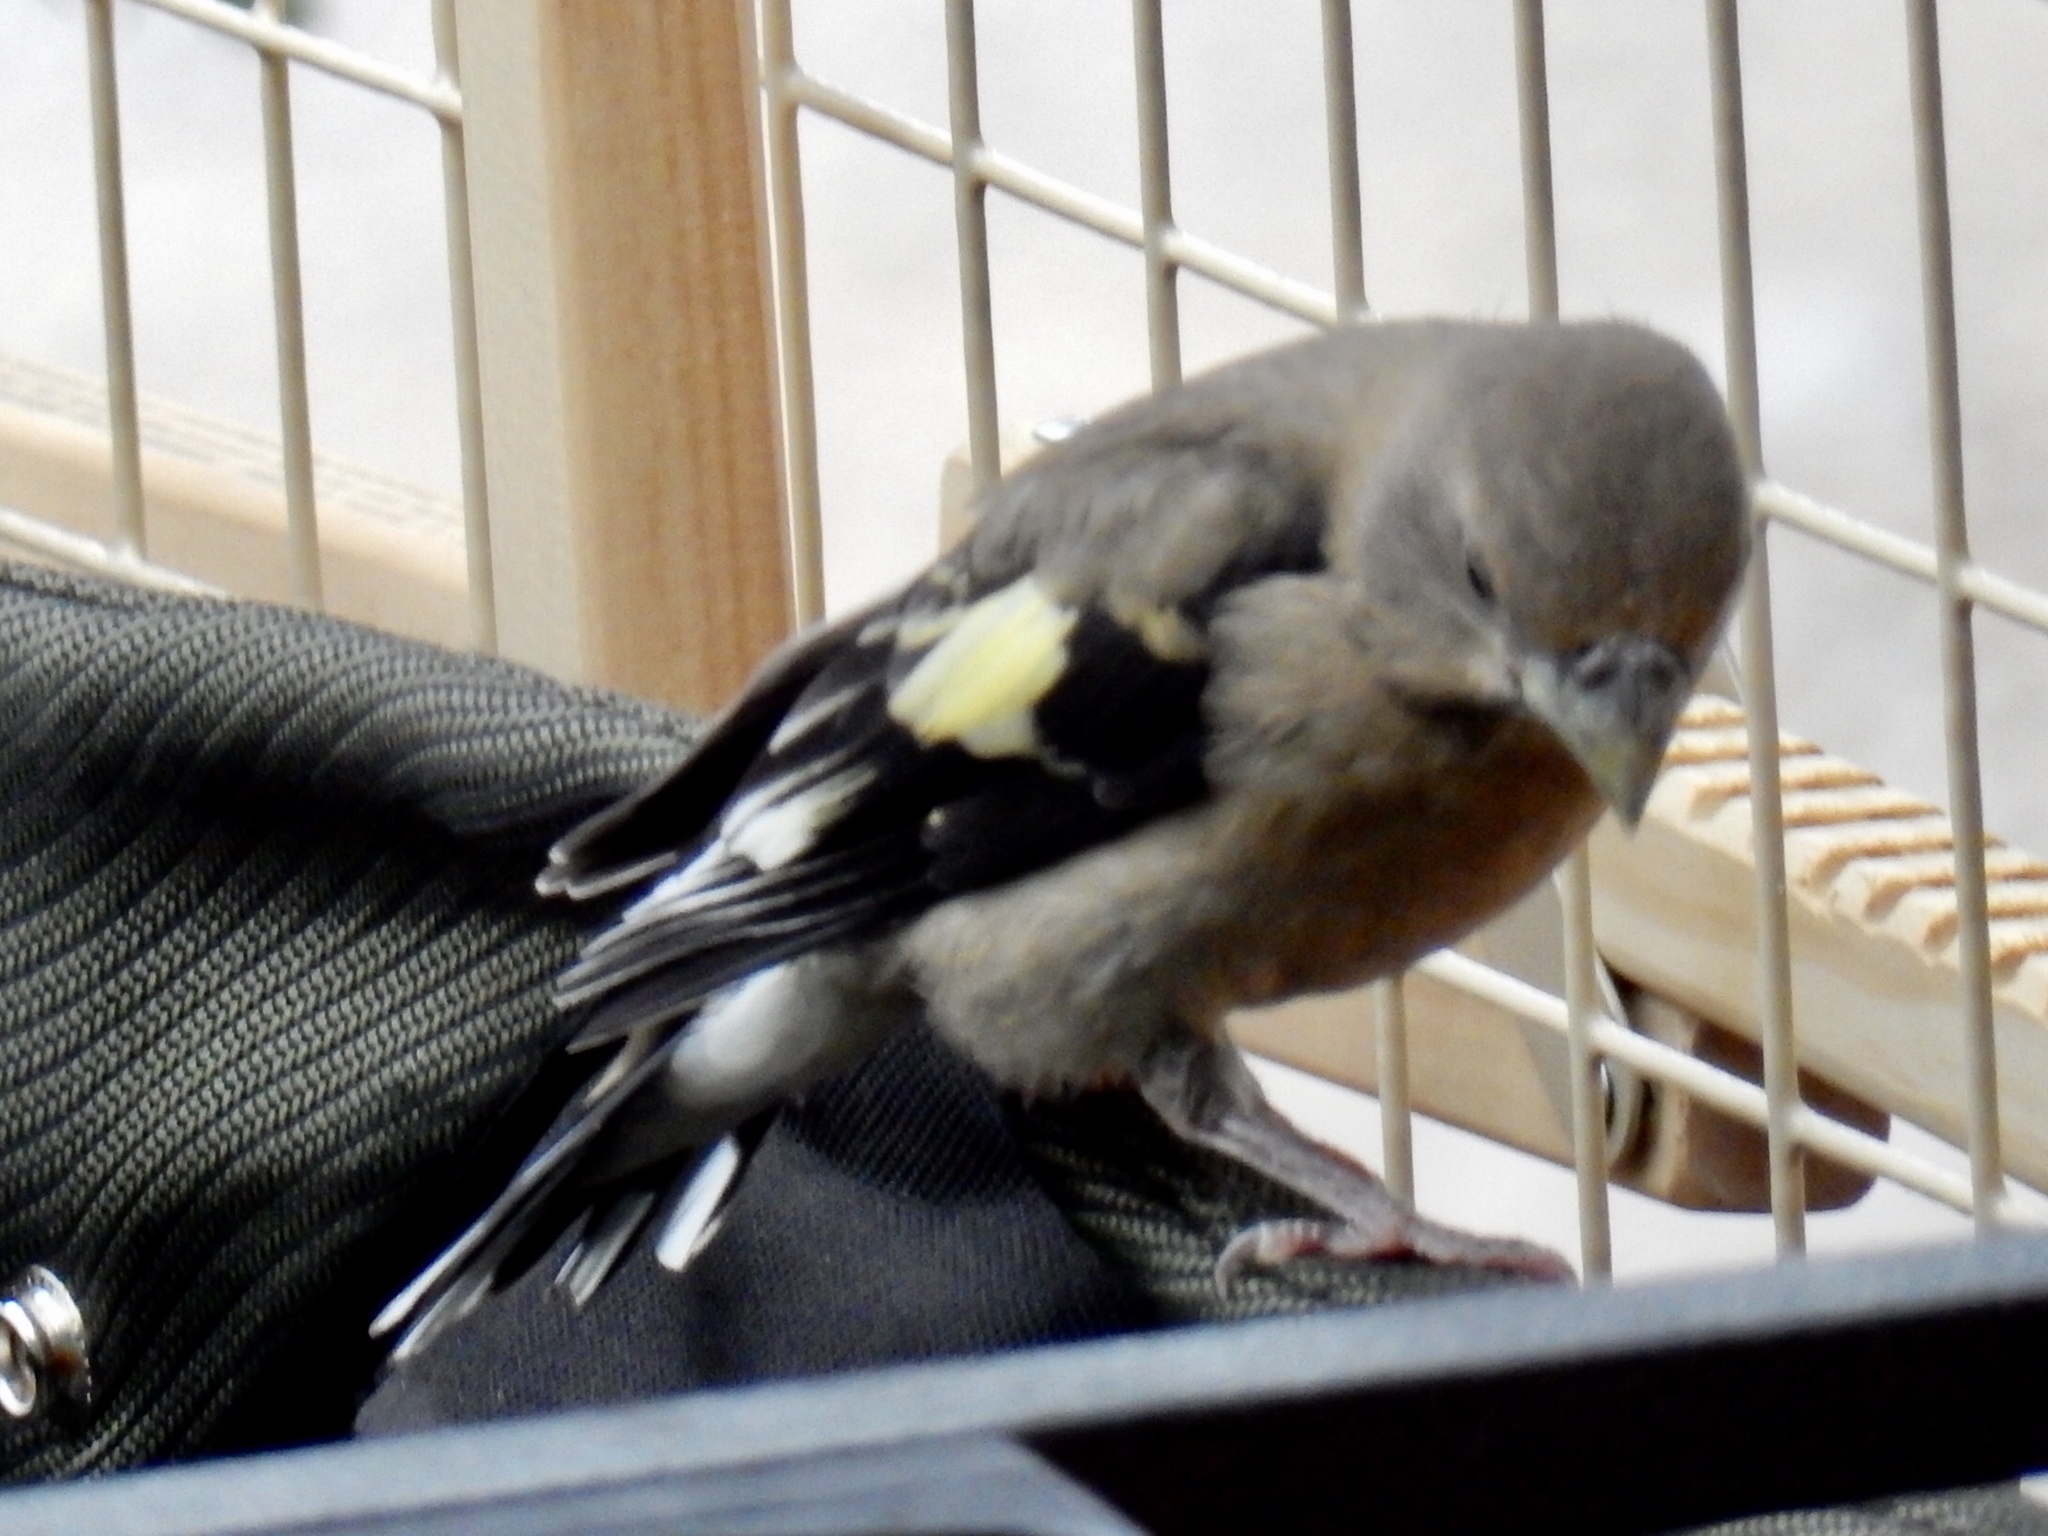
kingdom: Animalia
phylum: Chordata
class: Aves
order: Passeriformes
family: Fringillidae
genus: Hesperiphona
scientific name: Hesperiphona vespertina
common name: Evening grosbeak
